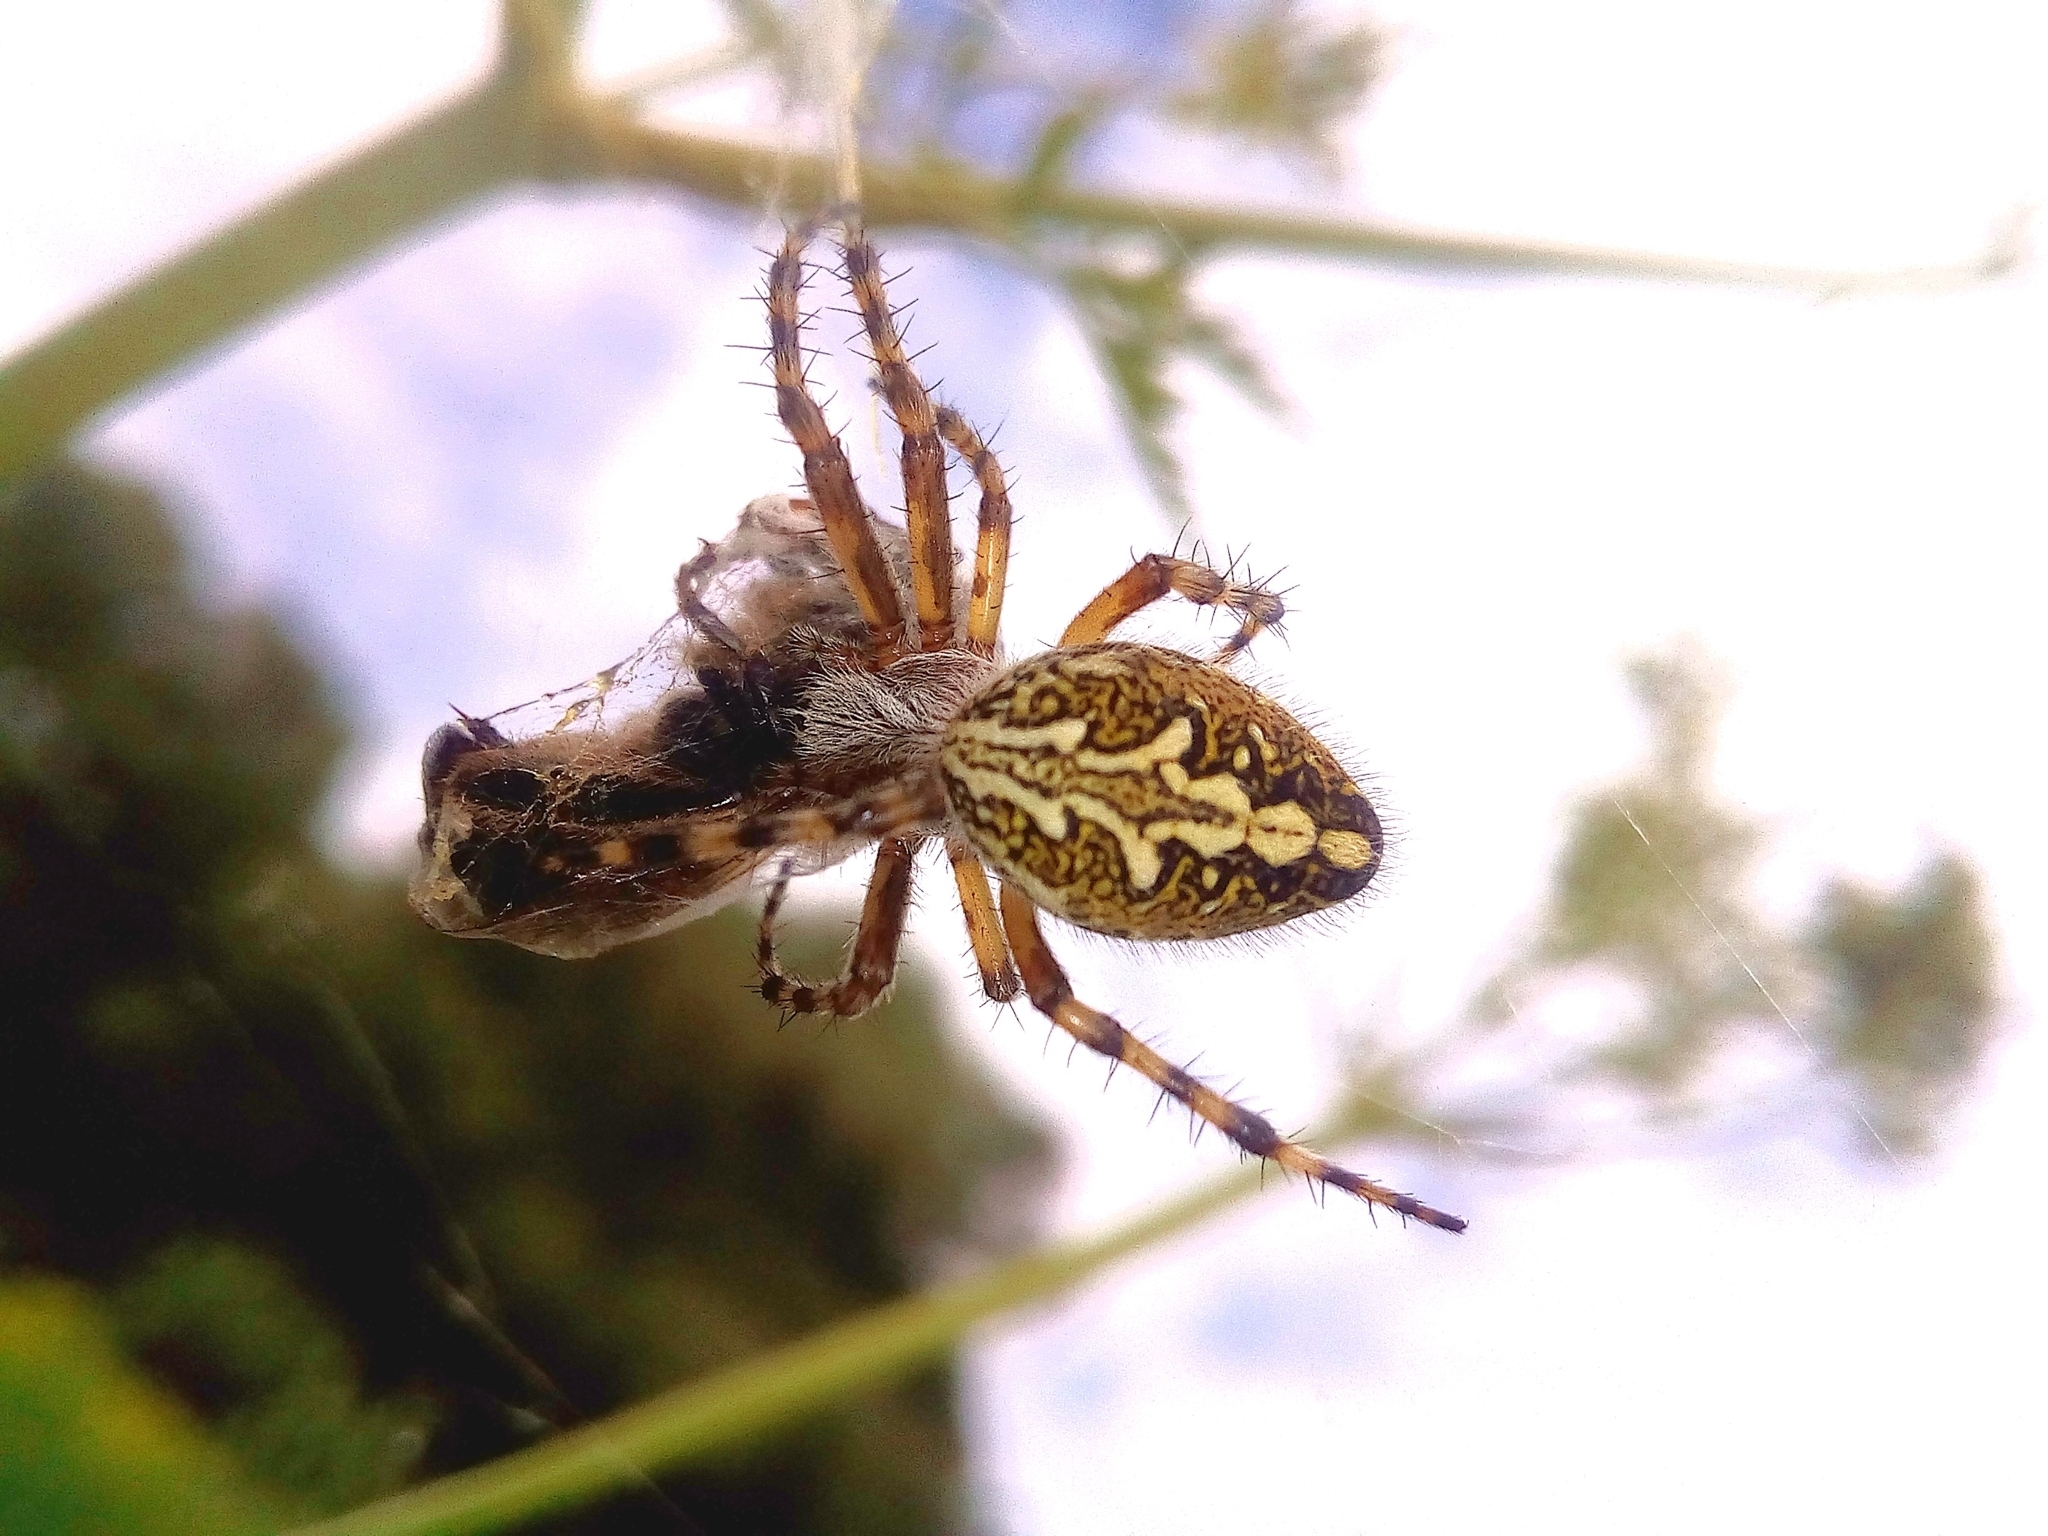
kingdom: Animalia
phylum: Arthropoda
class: Arachnida
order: Araneae
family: Araneidae
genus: Aculepeira
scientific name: Aculepeira ceropegia
